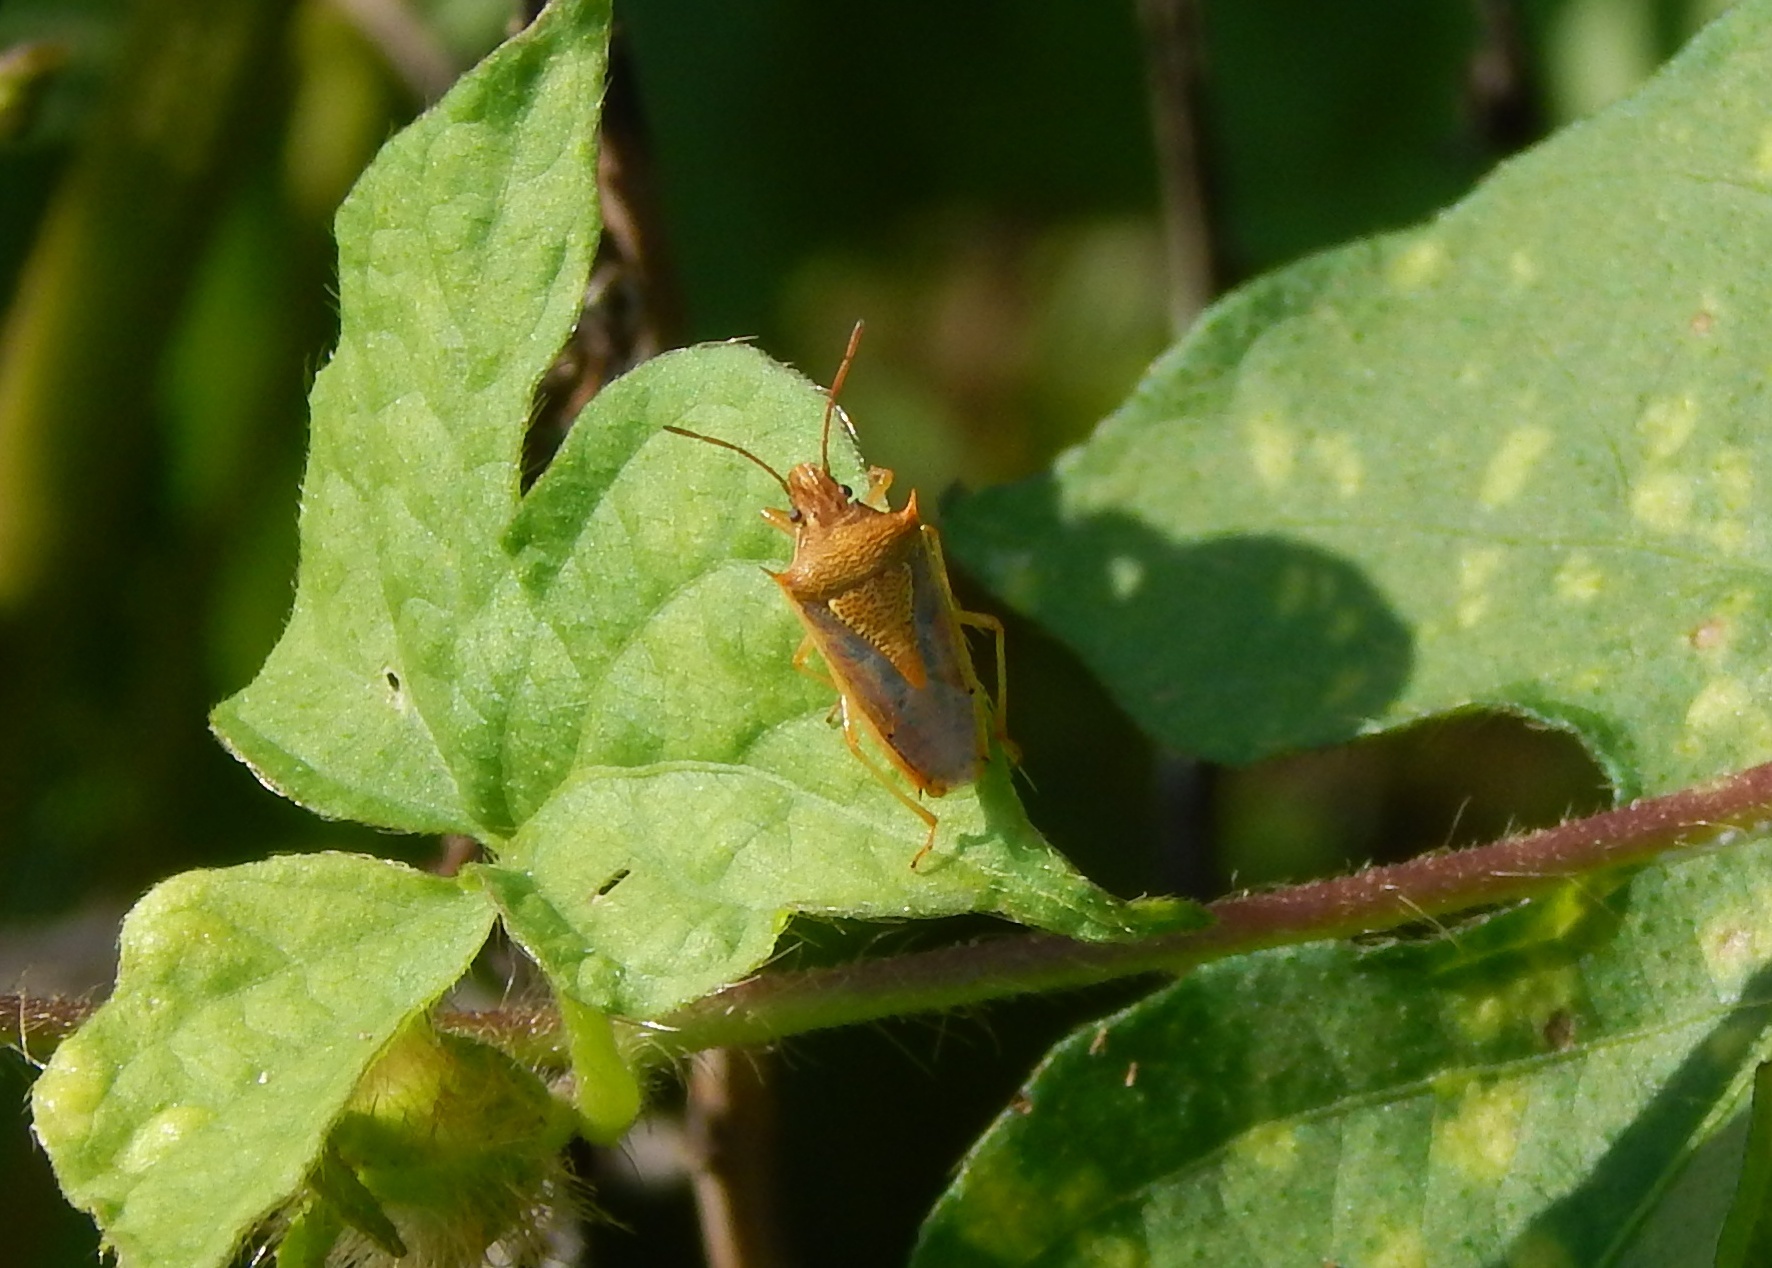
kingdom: Animalia
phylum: Arthropoda
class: Insecta
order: Hemiptera
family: Pentatomidae
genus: Oebalus
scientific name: Oebalus pugnax
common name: Rice stink bug
